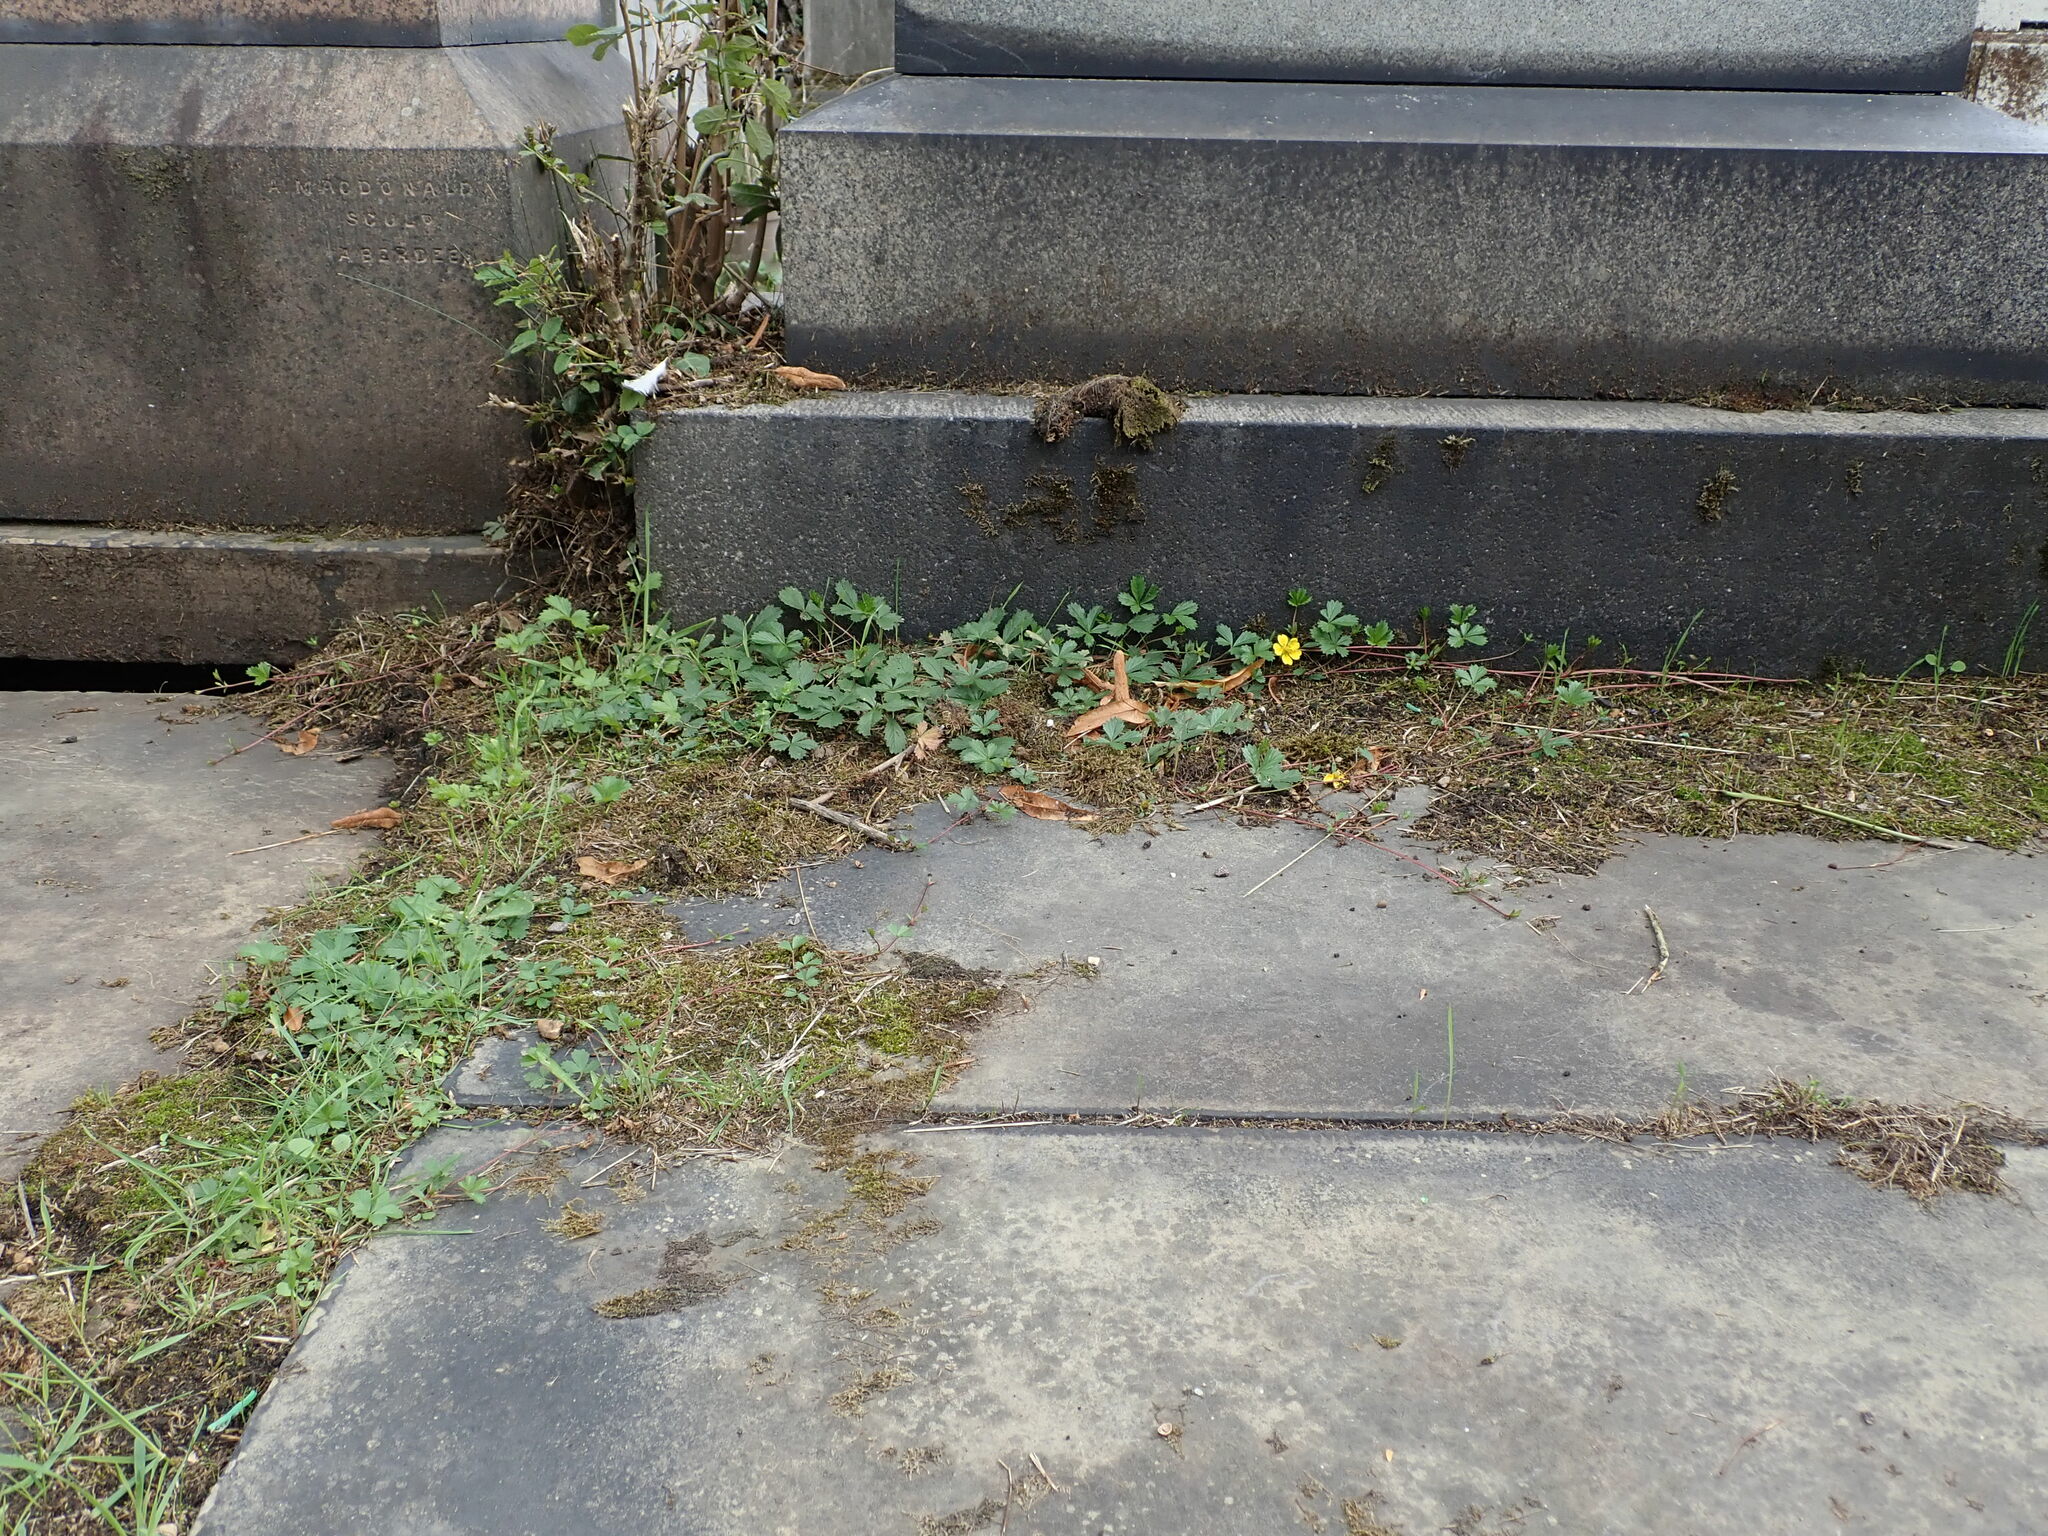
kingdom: Plantae
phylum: Tracheophyta
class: Magnoliopsida
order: Rosales
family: Rosaceae
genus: Potentilla
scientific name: Potentilla reptans
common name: Creeping cinquefoil
